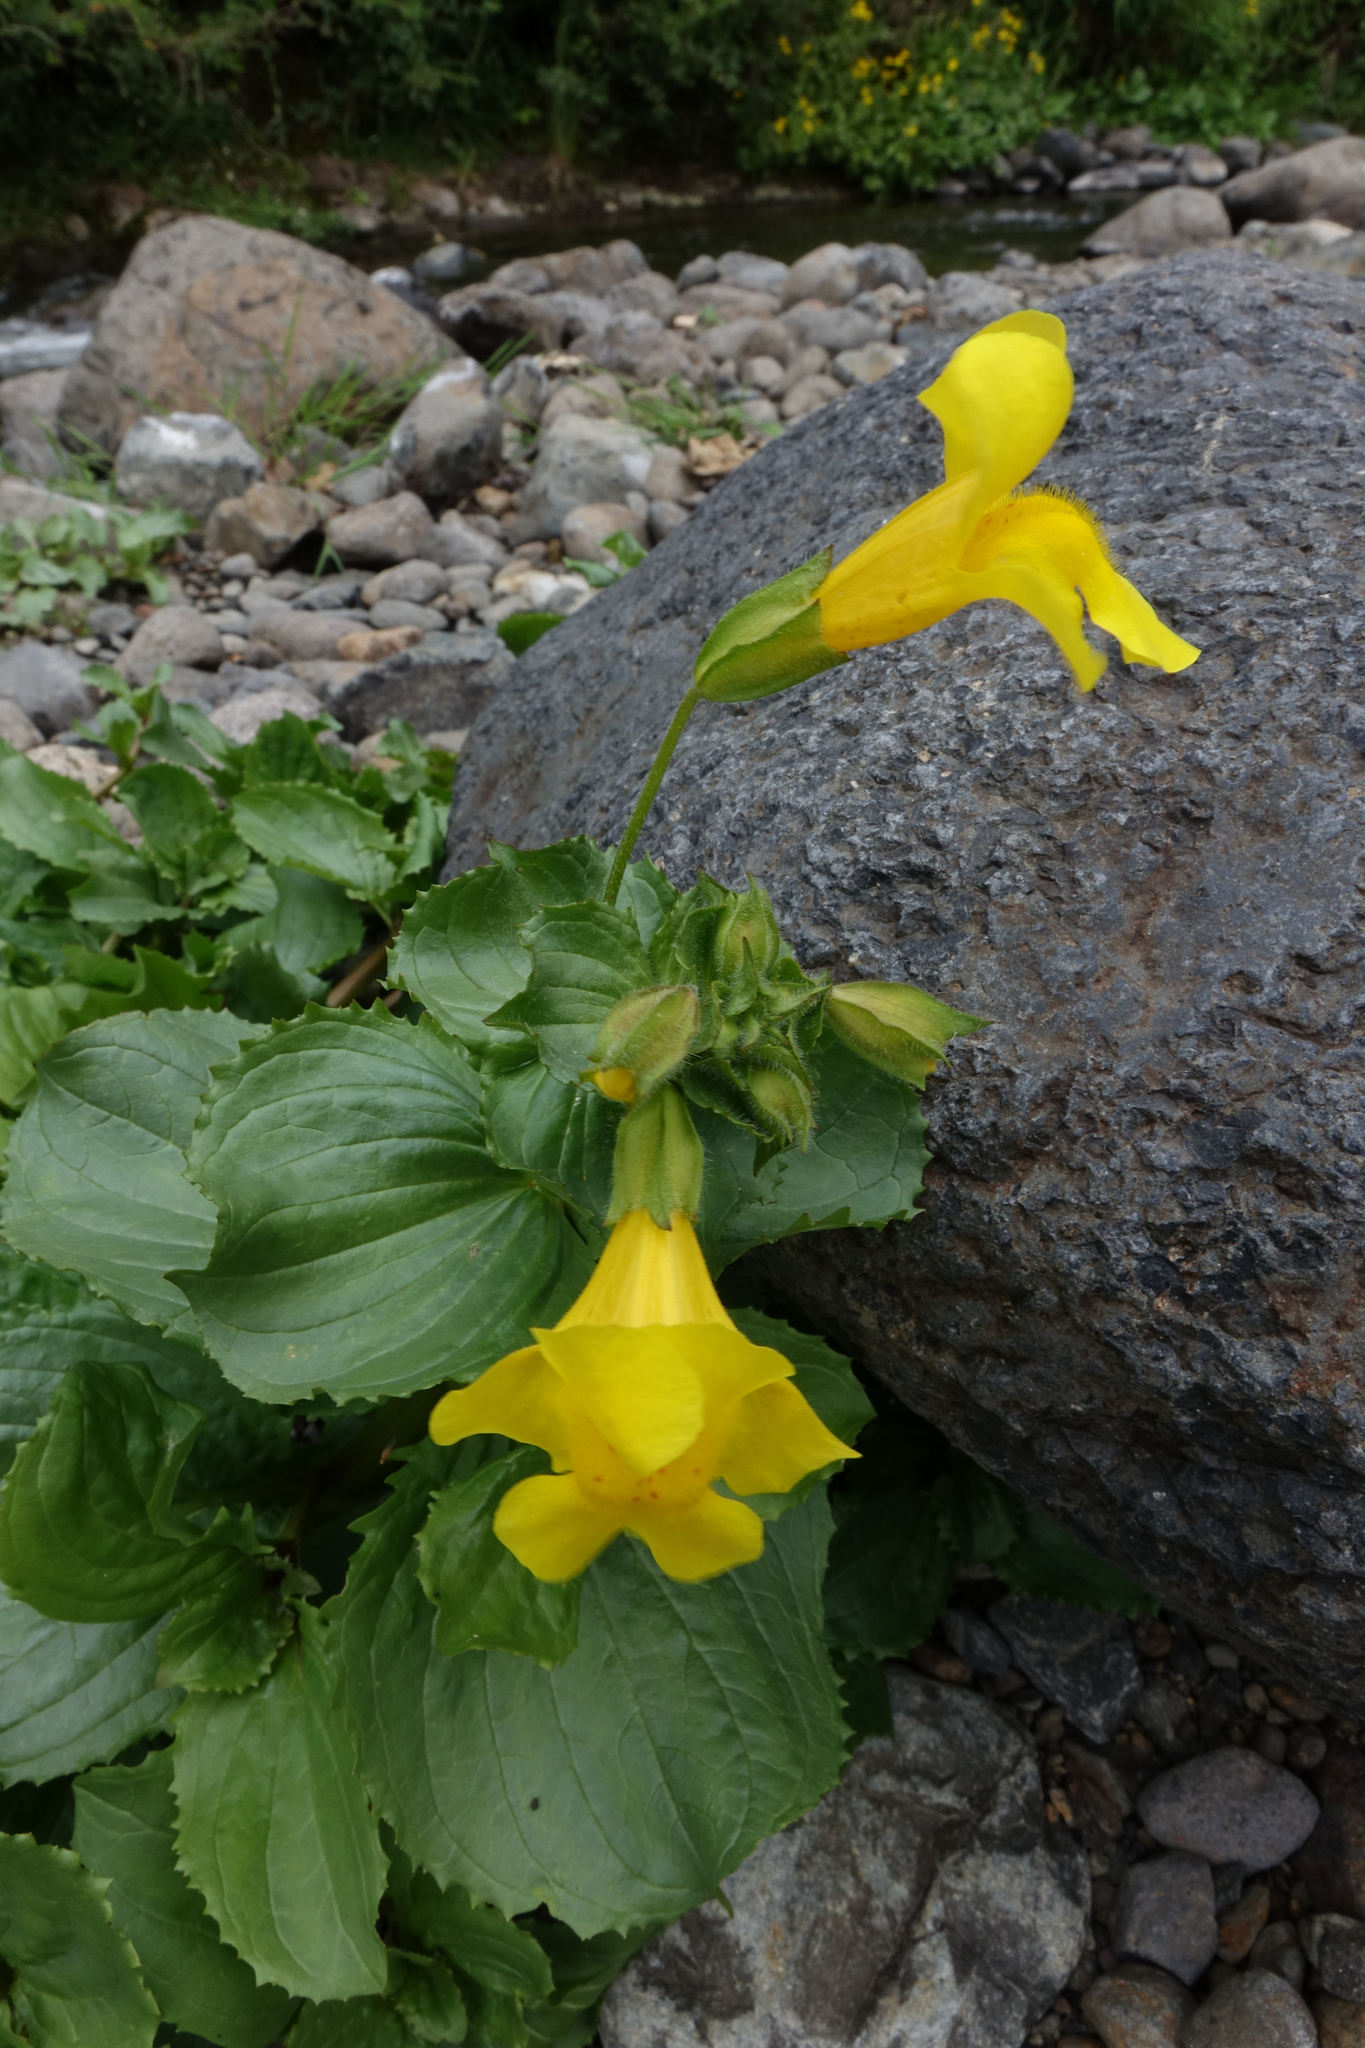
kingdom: Plantae
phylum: Tracheophyta
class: Magnoliopsida
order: Lamiales
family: Phrymaceae
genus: Erythranthe
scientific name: Erythranthe guttata
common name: Monkeyflower
